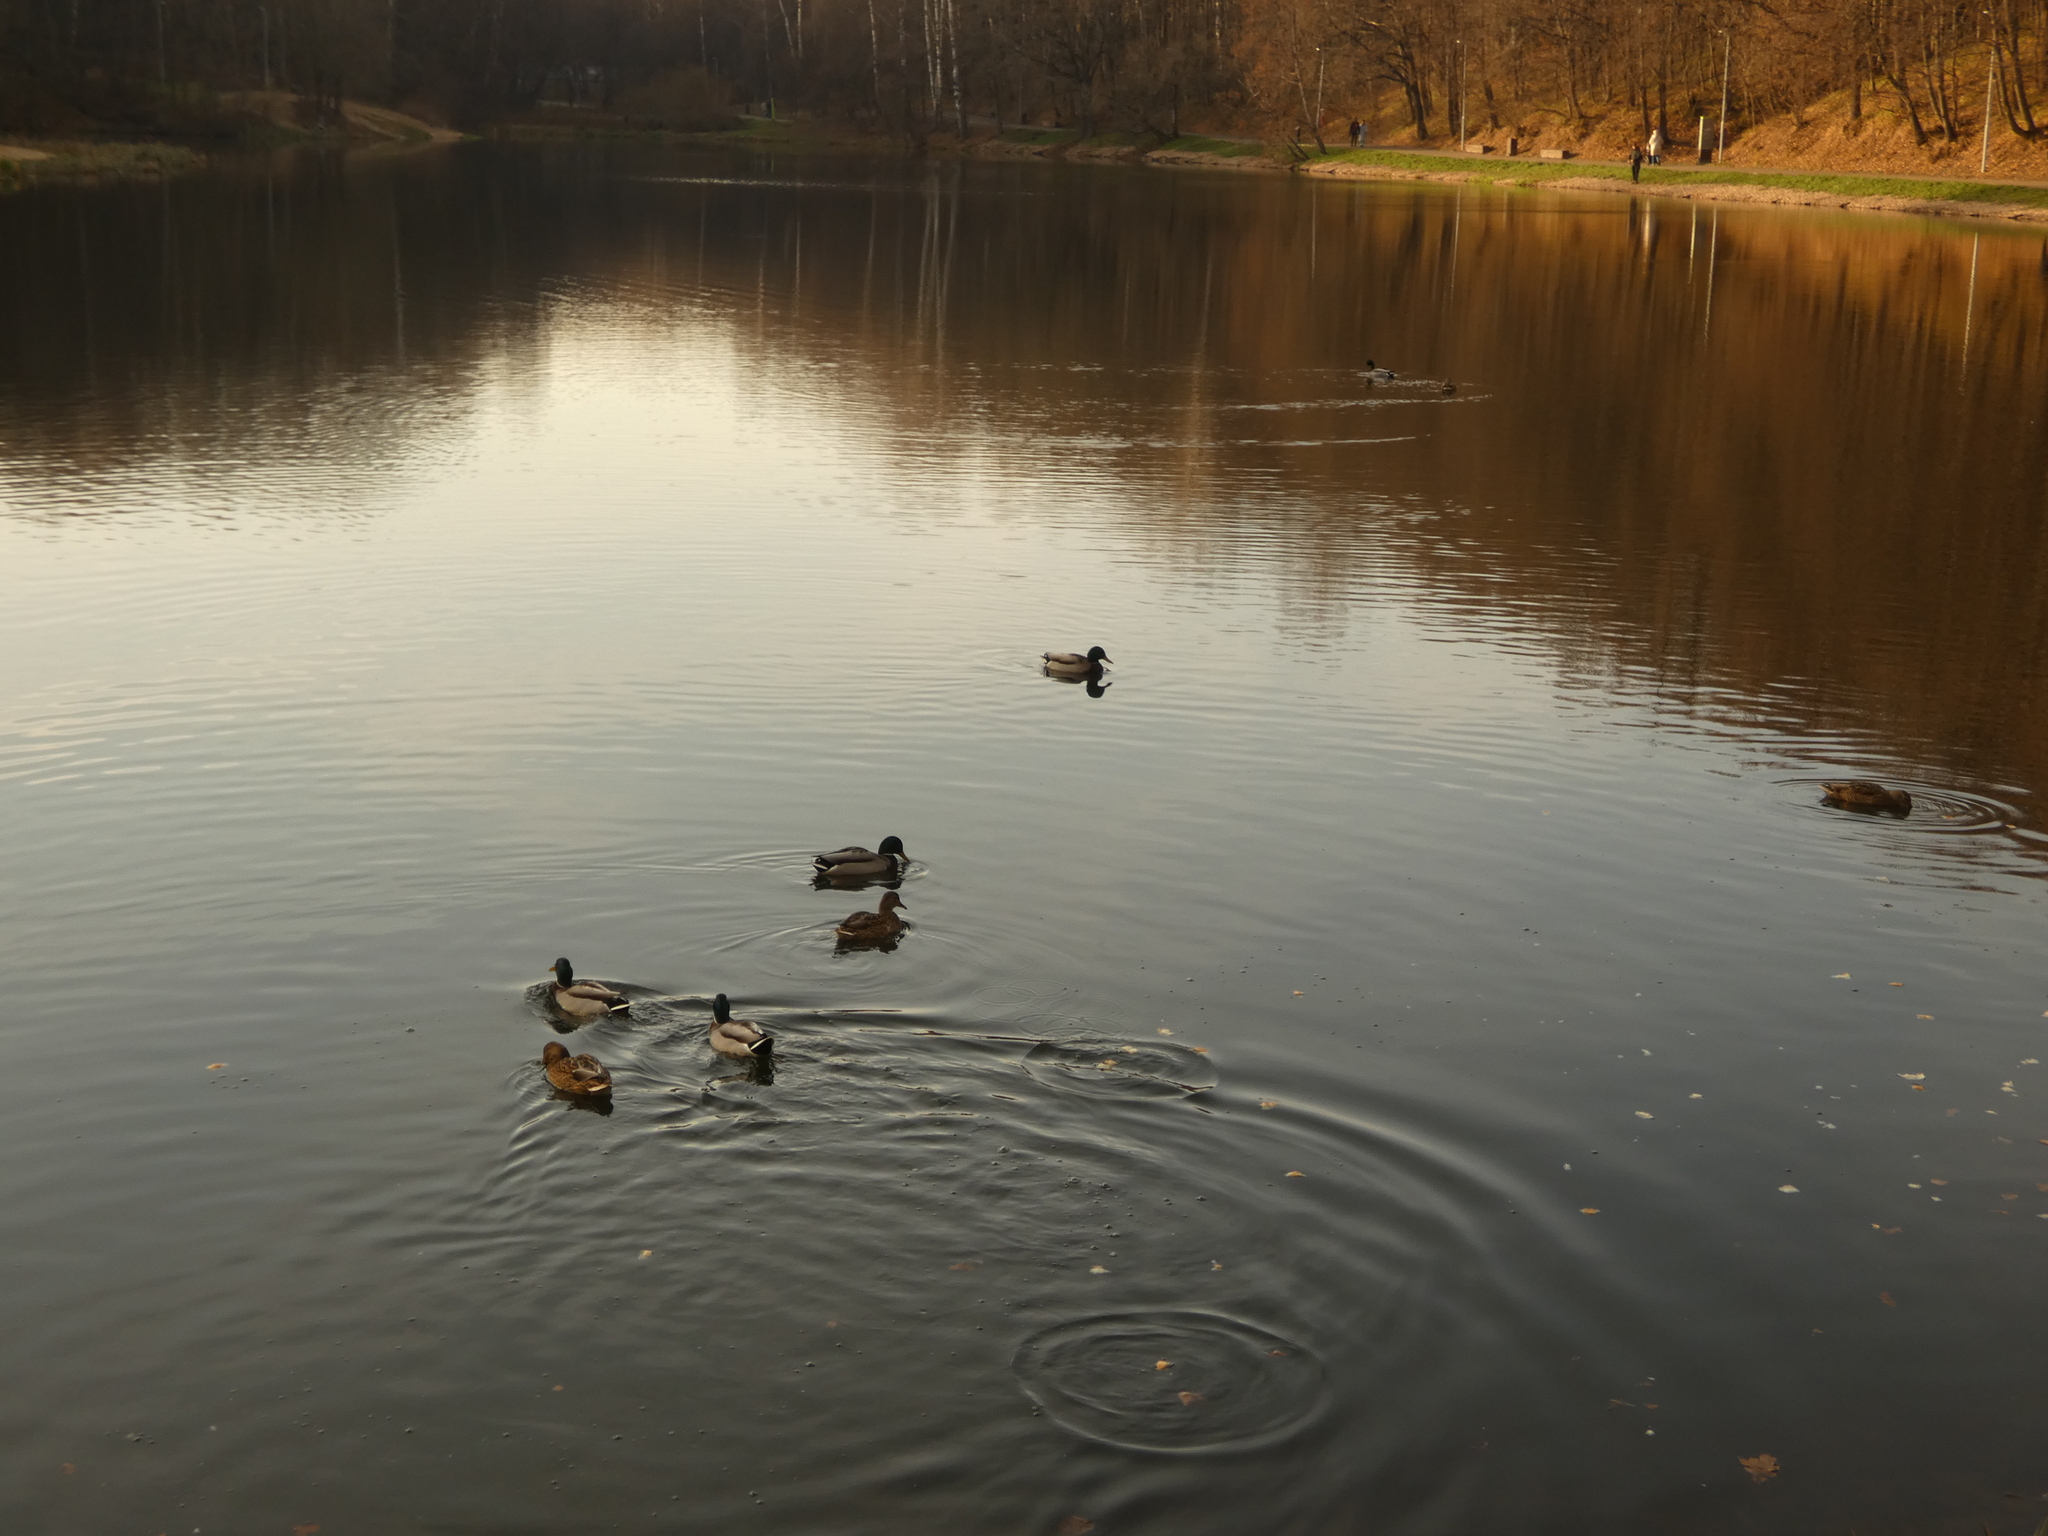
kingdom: Animalia
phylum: Chordata
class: Aves
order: Anseriformes
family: Anatidae
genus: Anas
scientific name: Anas platyrhynchos
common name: Mallard
